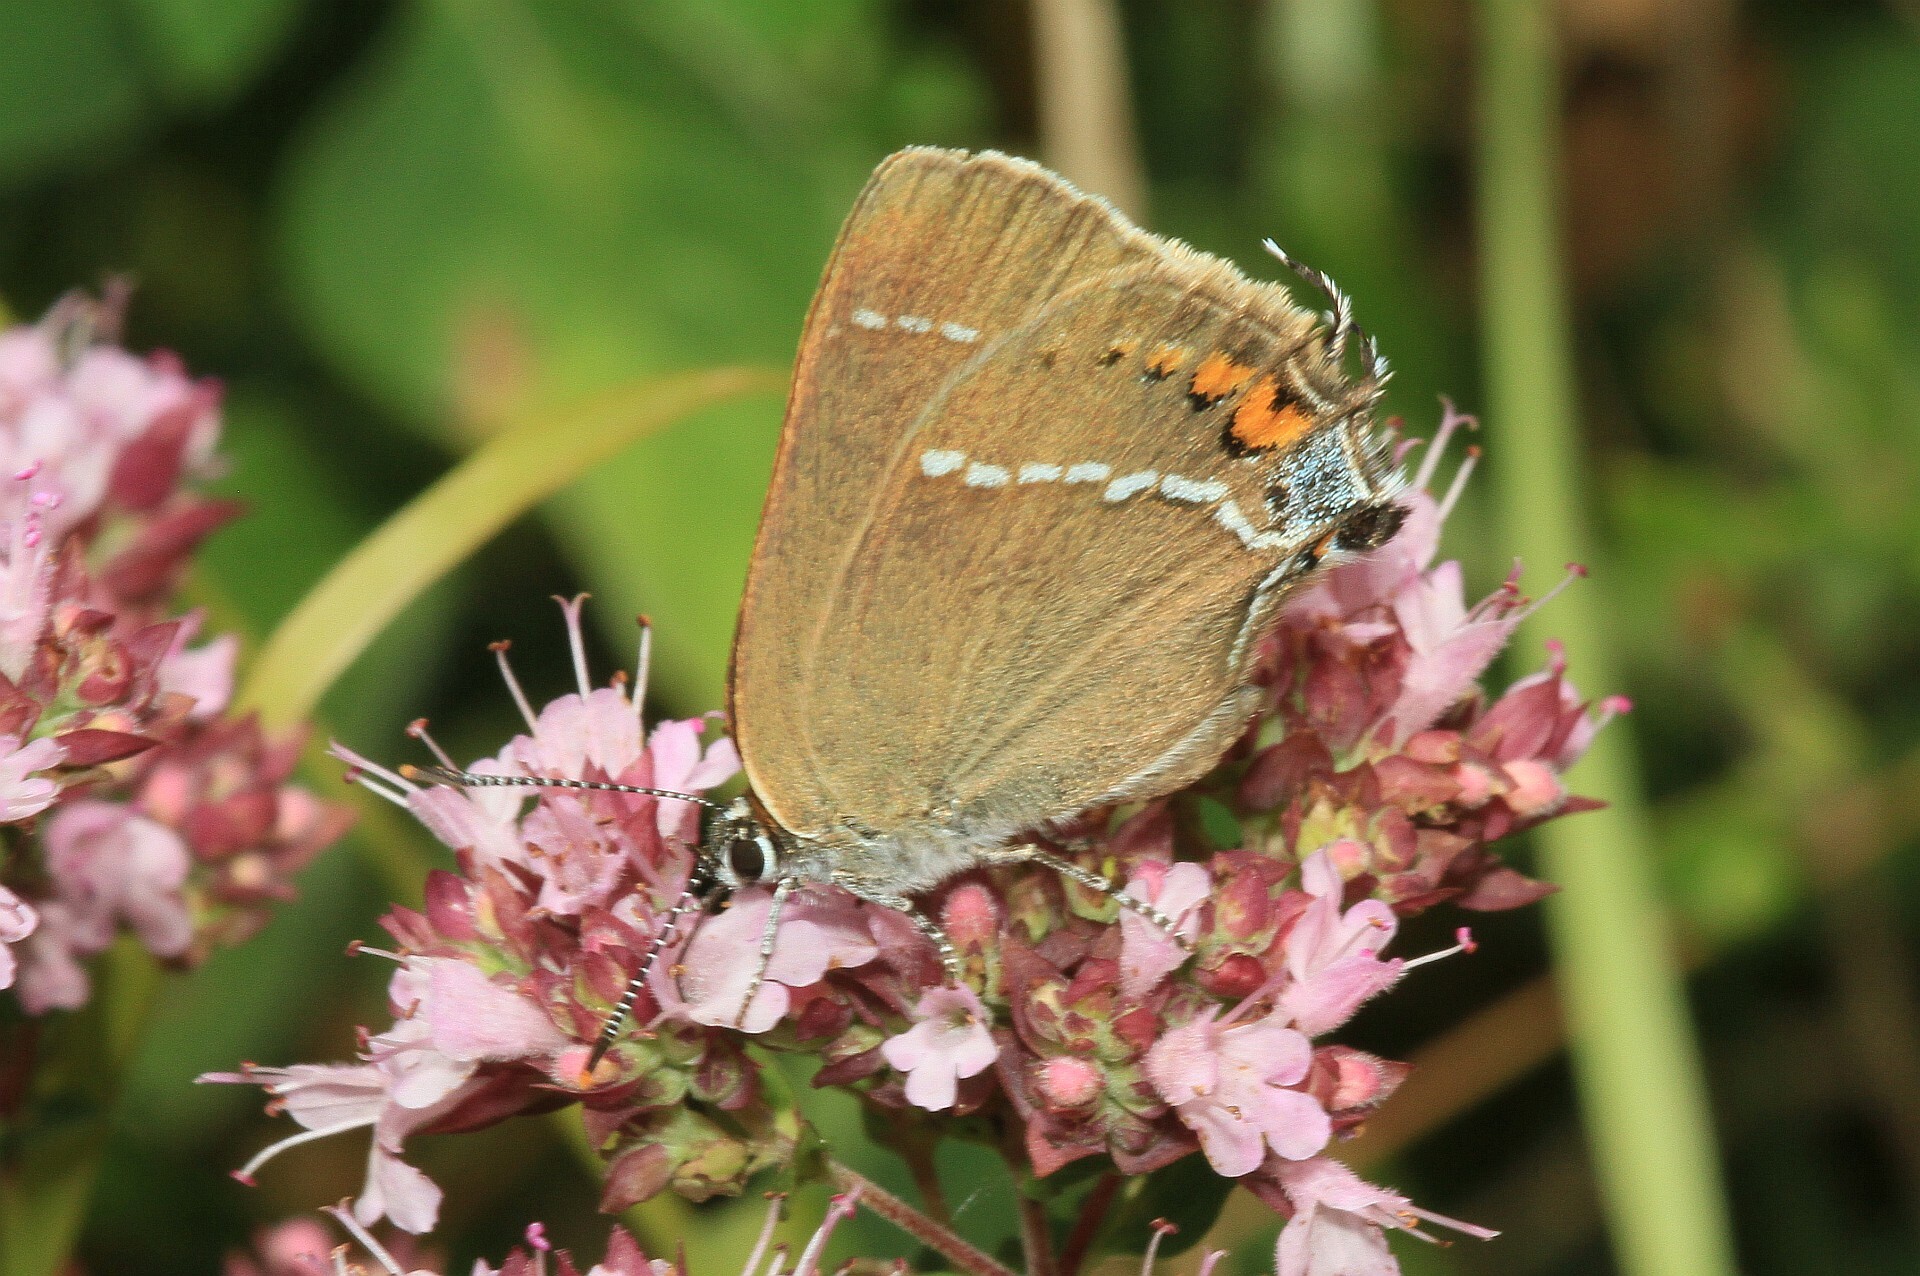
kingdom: Animalia
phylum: Arthropoda
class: Insecta
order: Lepidoptera
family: Lycaenidae
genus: Tuttiola
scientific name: Tuttiola spini
